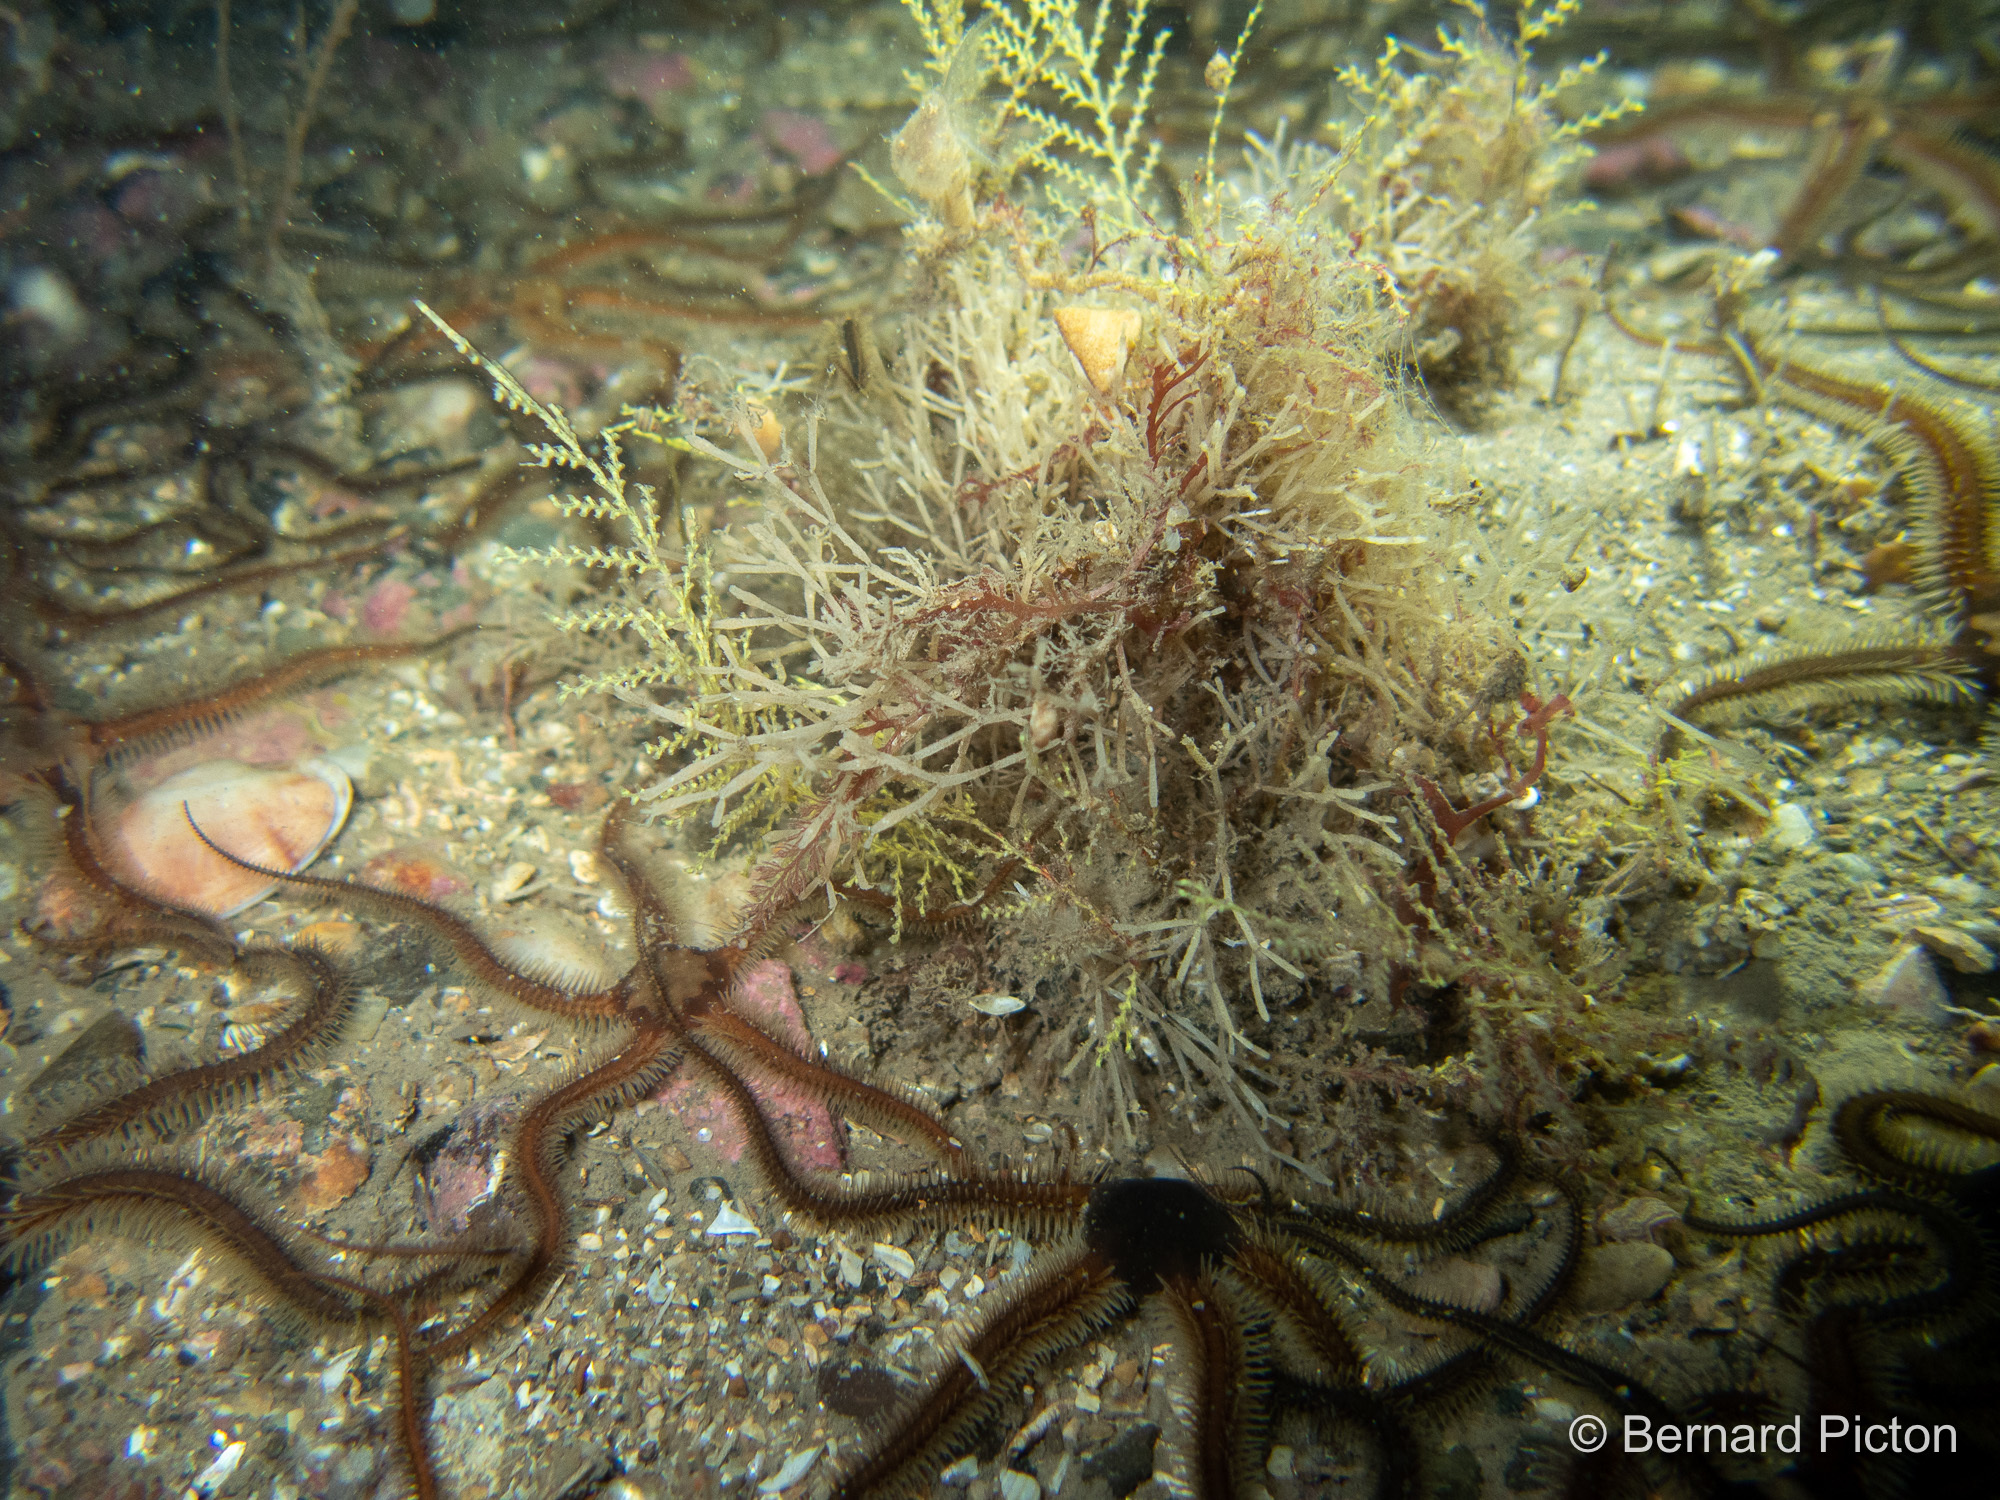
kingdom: Animalia
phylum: Cnidaria
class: Hydrozoa
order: Leptothecata
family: Sertularellidae
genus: Sertularella
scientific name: Sertularella gayi
